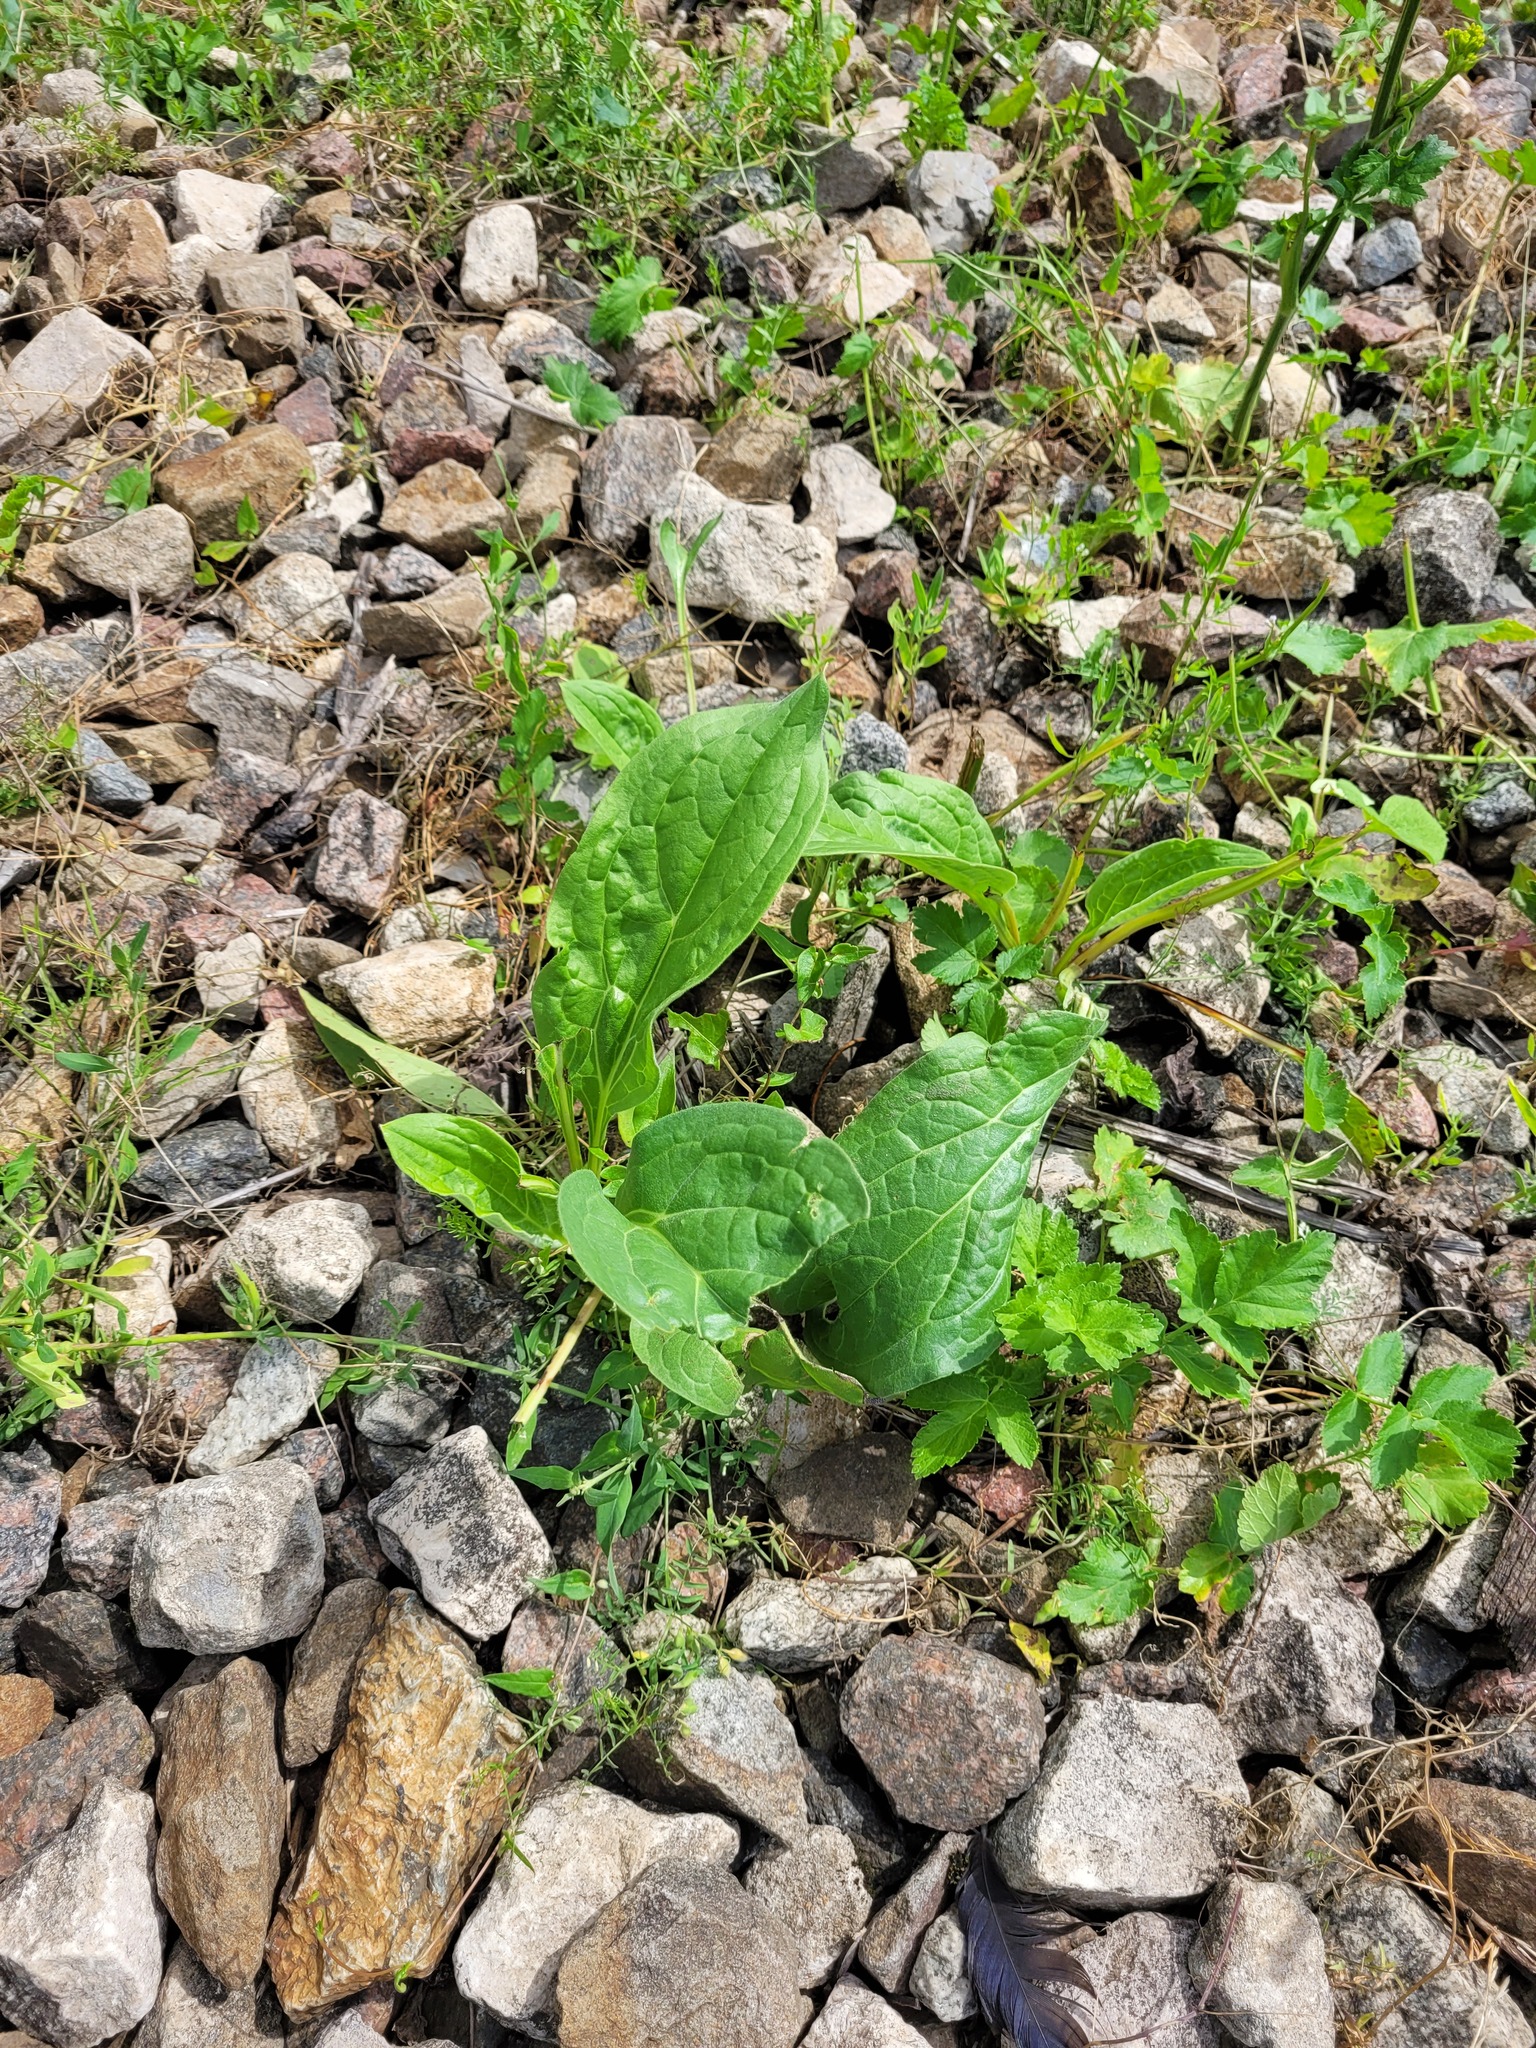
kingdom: Plantae
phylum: Tracheophyta
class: Magnoliopsida
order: Boraginales
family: Boraginaceae
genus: Cynoglossum
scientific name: Cynoglossum officinale
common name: Hound's-tongue
